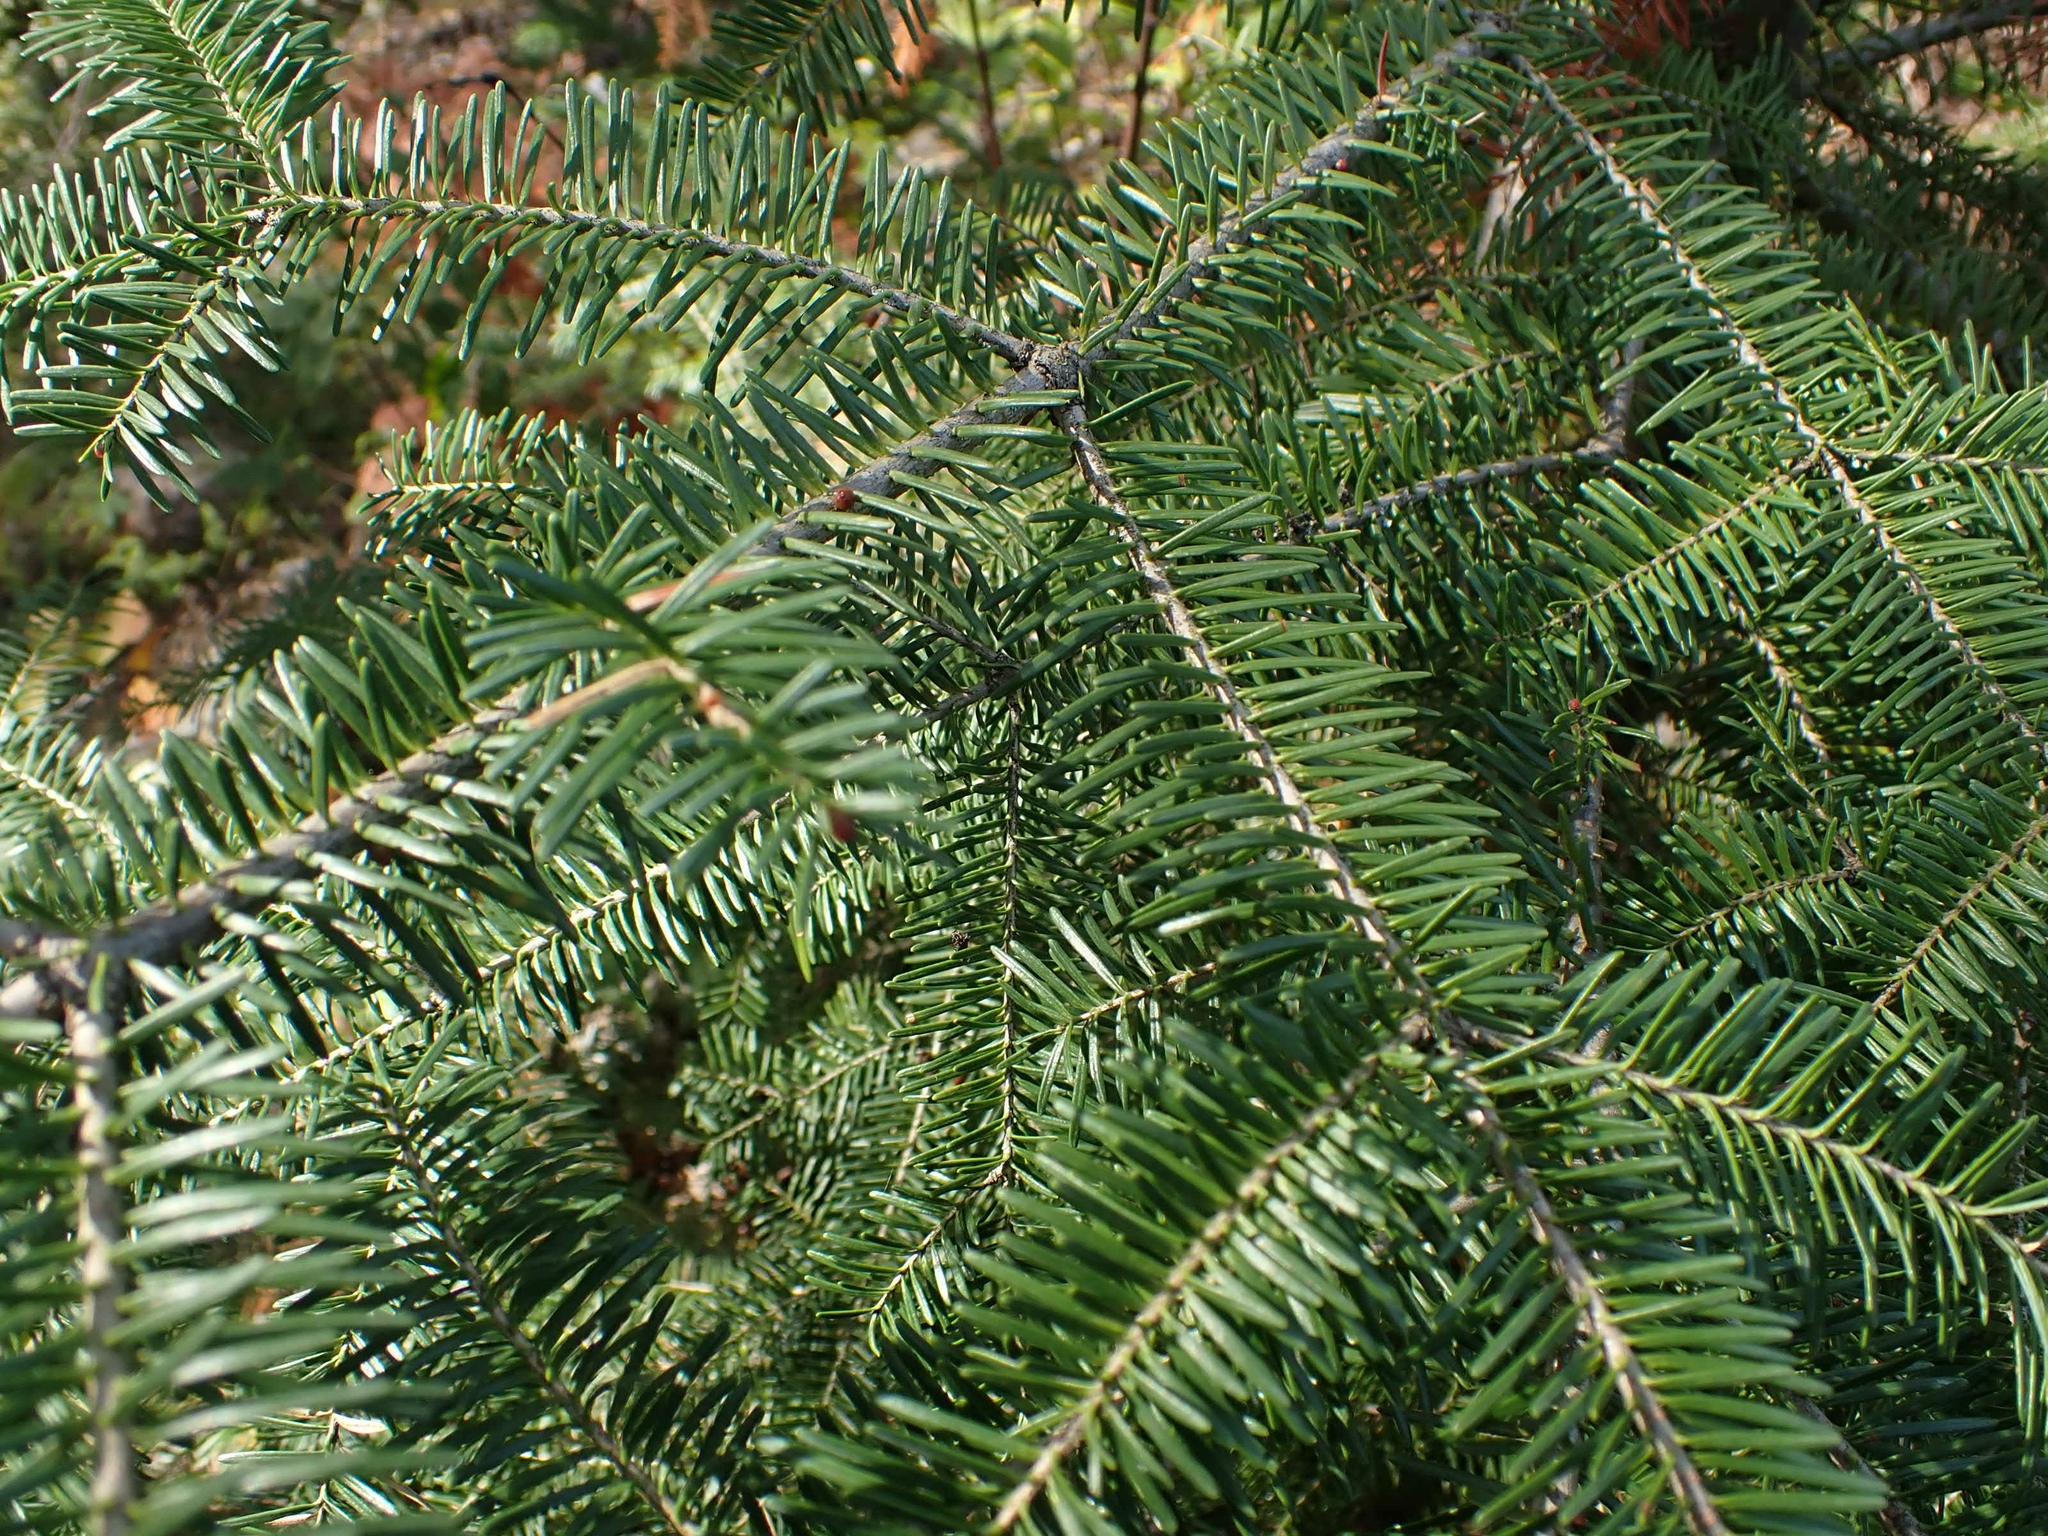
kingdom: Plantae
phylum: Tracheophyta
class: Pinopsida
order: Pinales
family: Pinaceae
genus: Abies
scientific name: Abies balsamea
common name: Balsam fir
